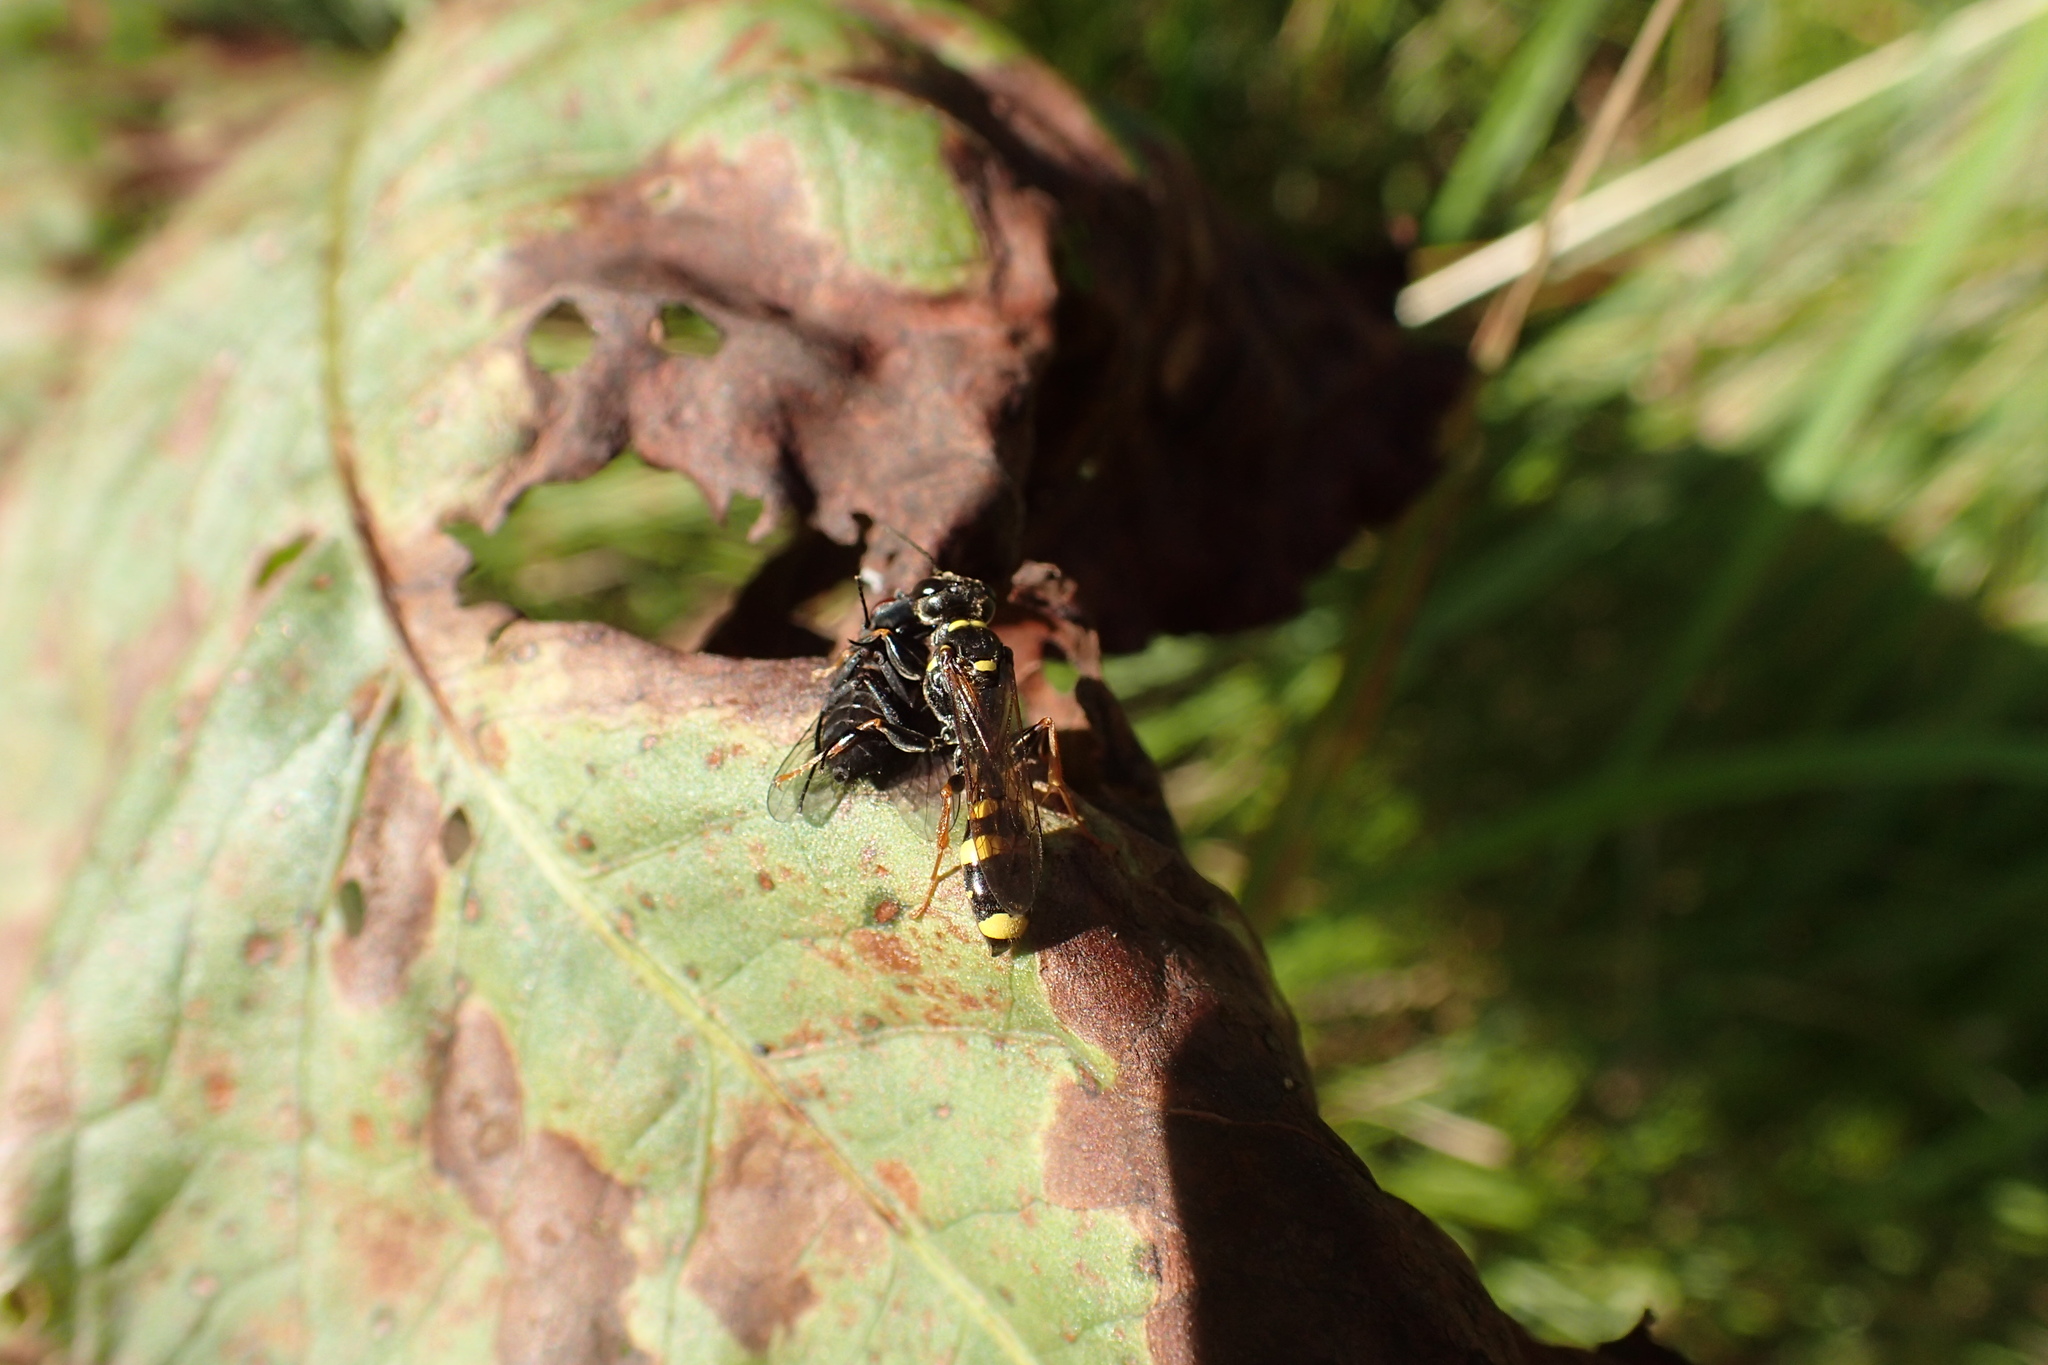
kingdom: Animalia
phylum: Arthropoda
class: Insecta
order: Hymenoptera
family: Crabronidae
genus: Mellinus
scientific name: Mellinus arvensis
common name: Field digger wasp
